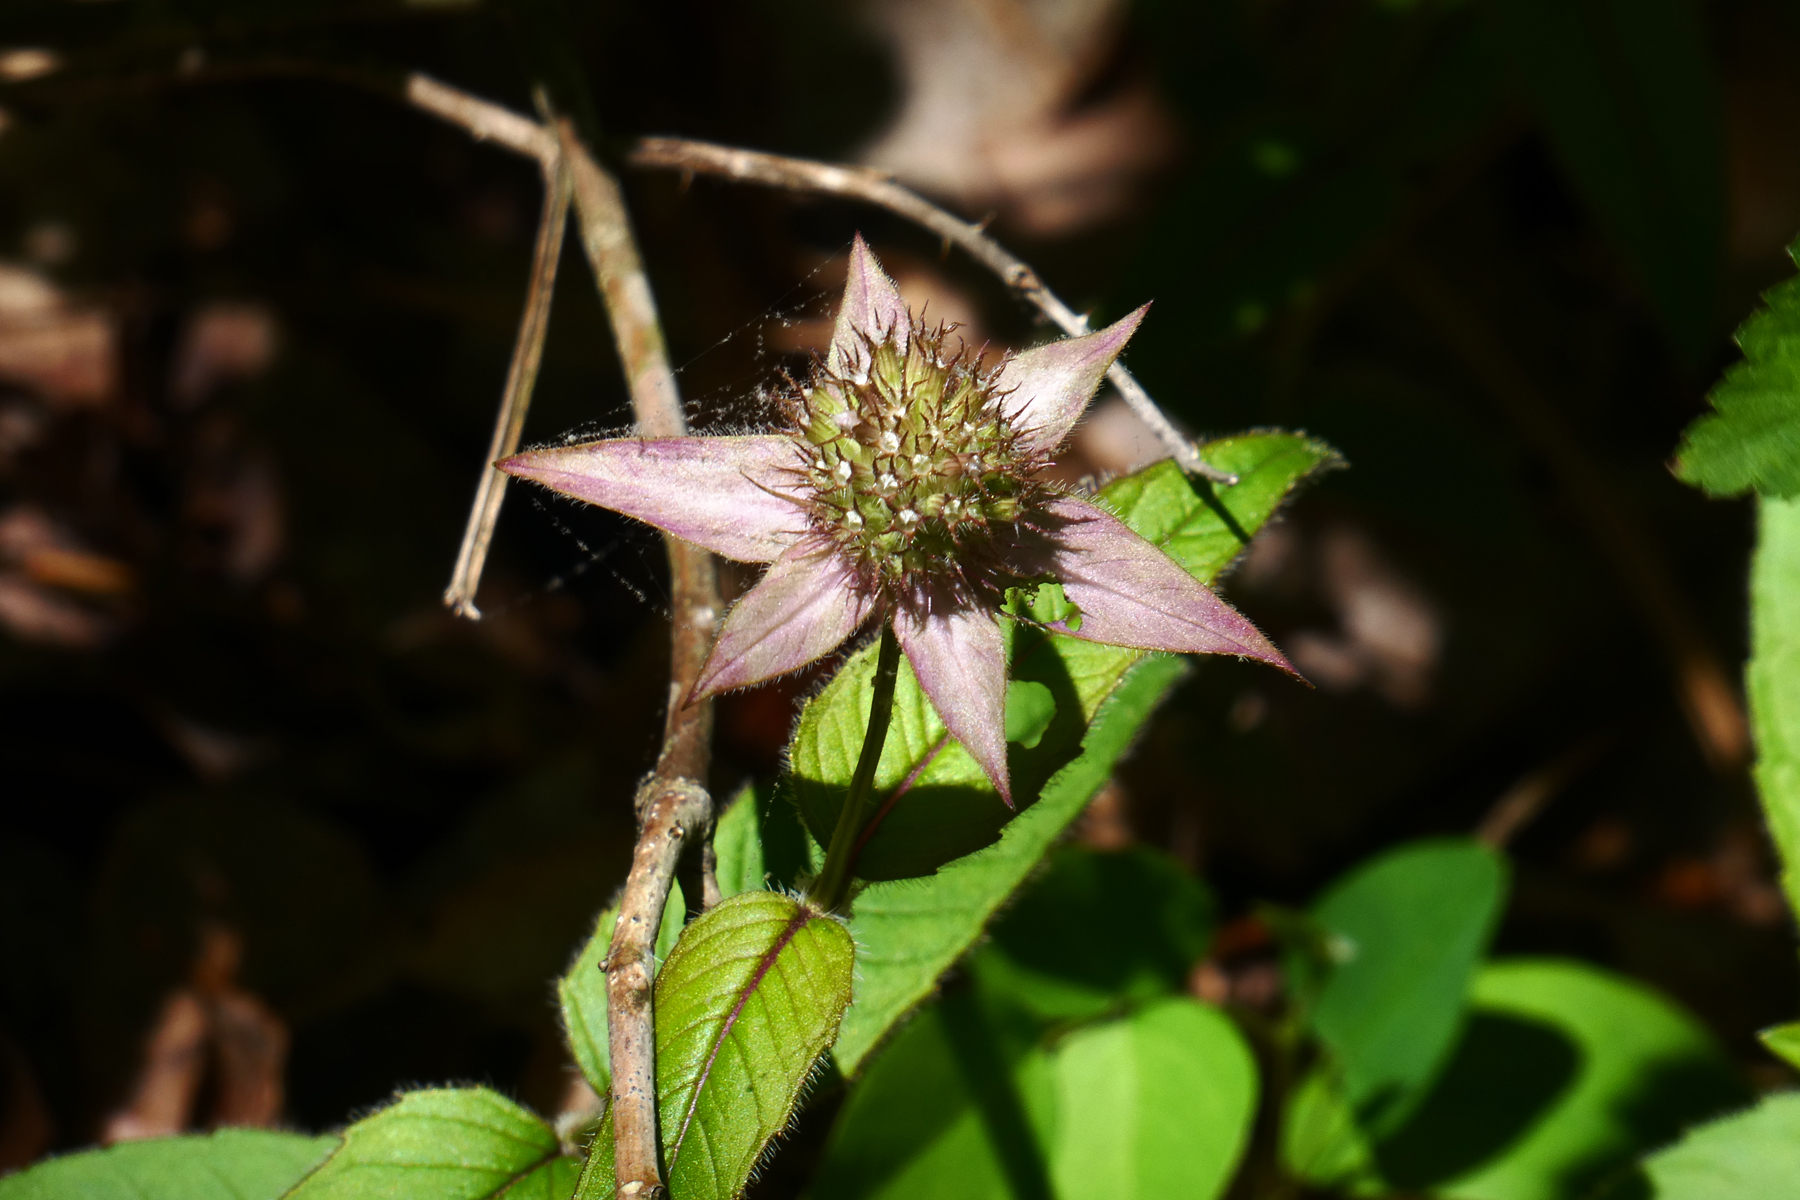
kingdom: Plantae
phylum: Tracheophyta
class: Magnoliopsida
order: Lamiales
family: Lamiaceae
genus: Monarda
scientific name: Monarda bradburiana
